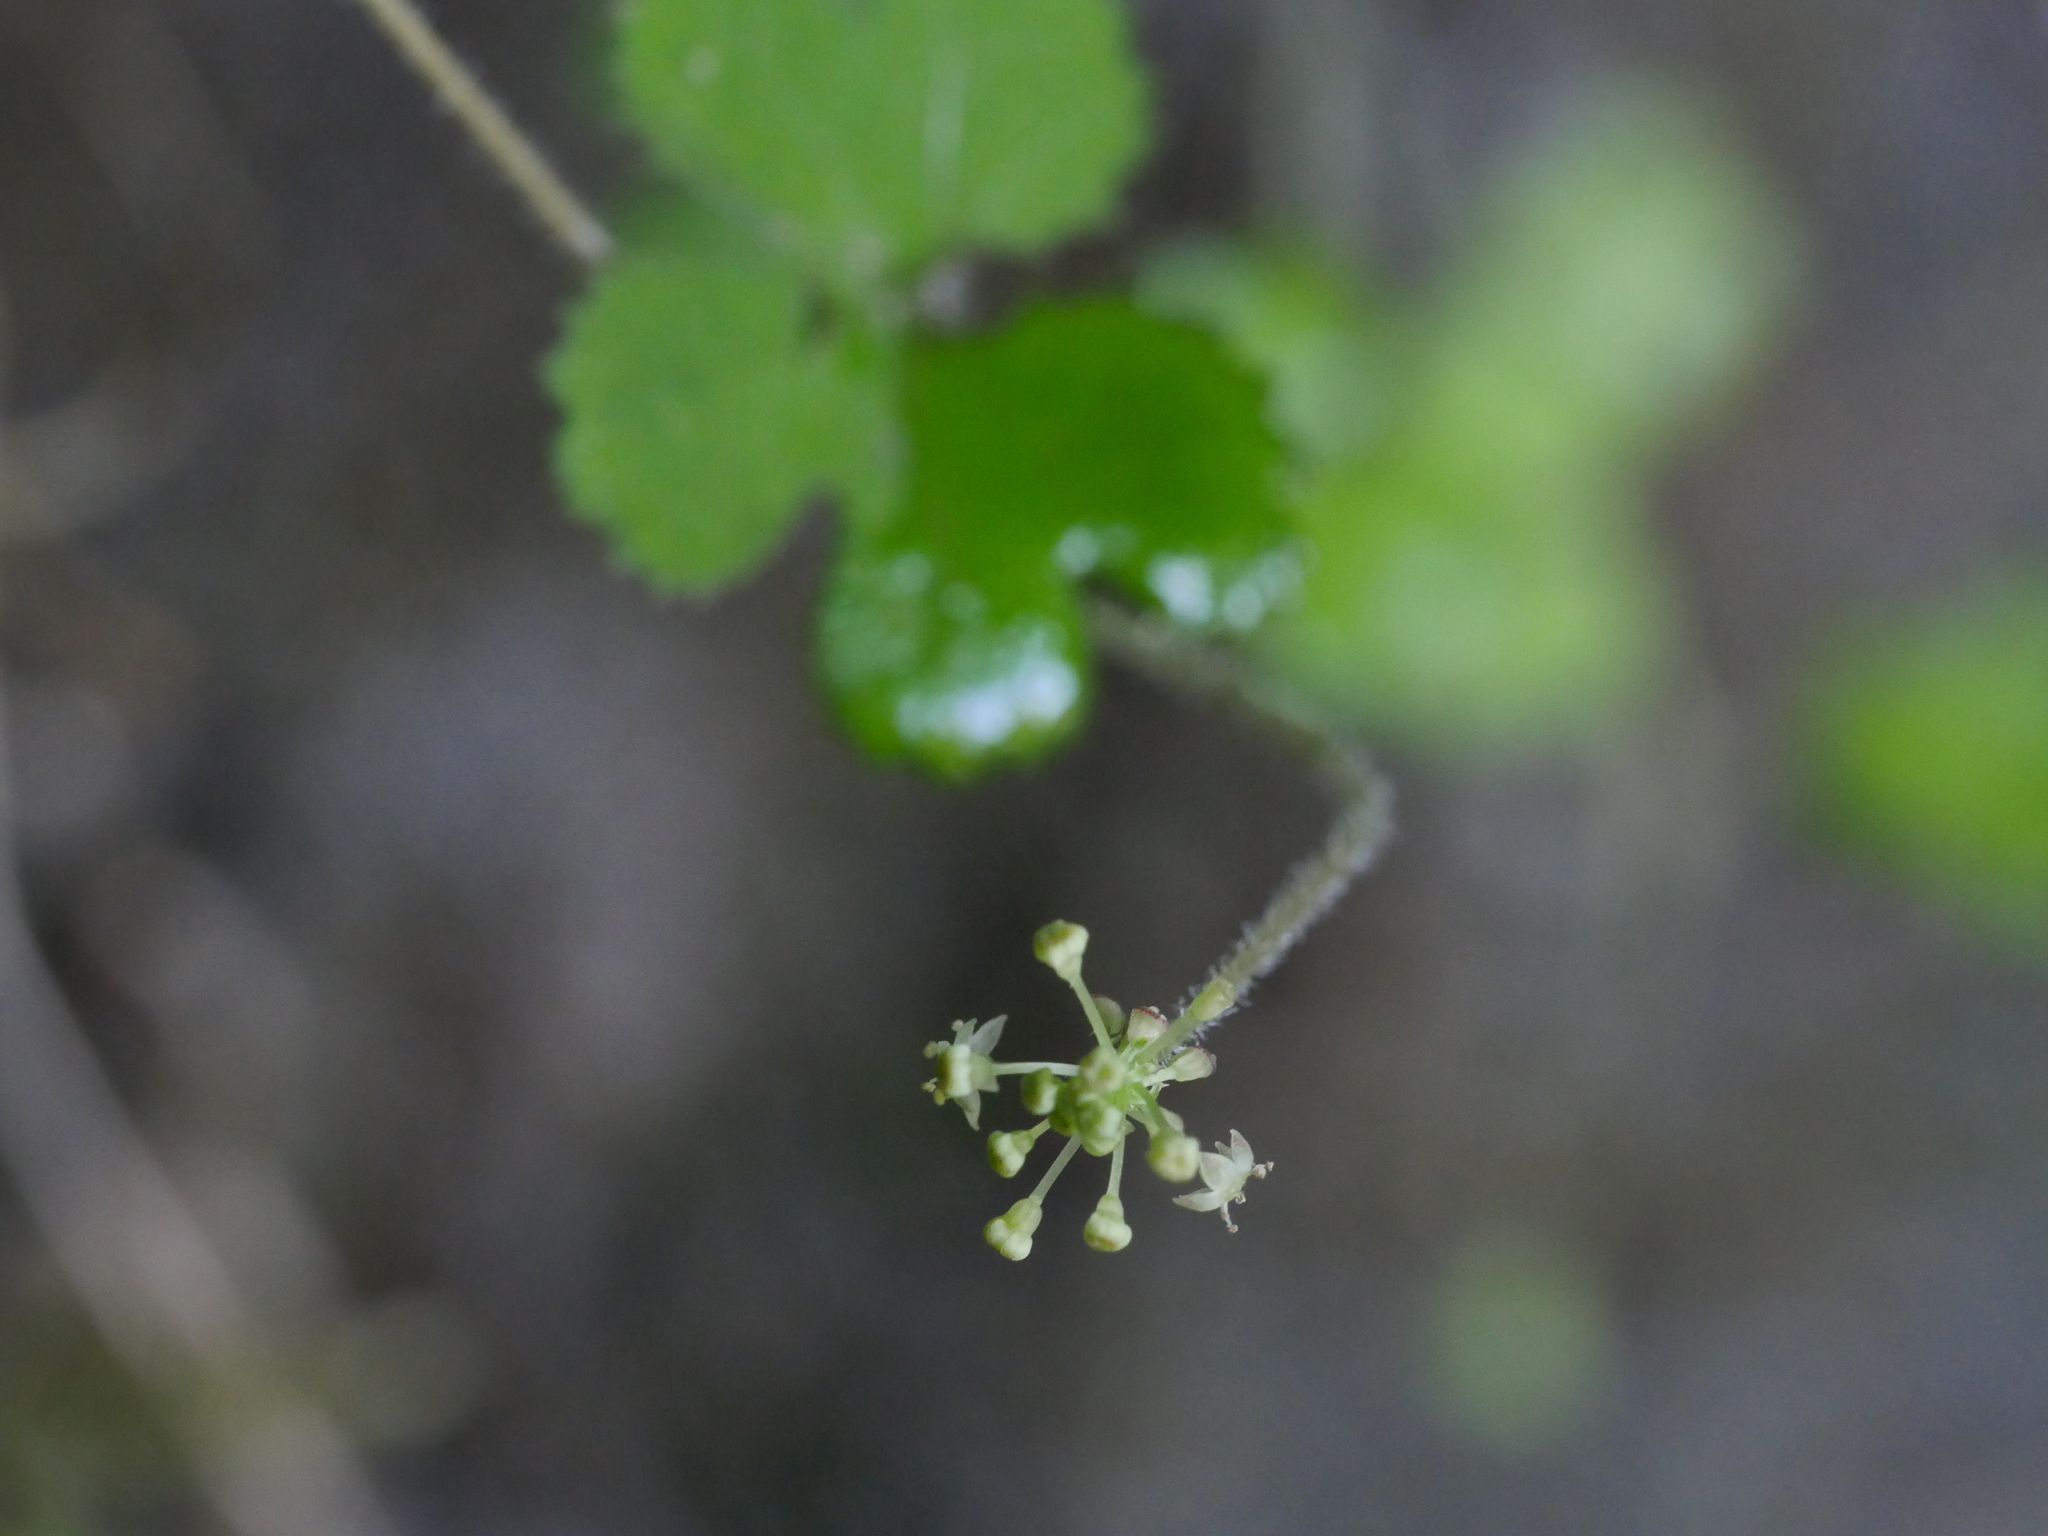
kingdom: Plantae
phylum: Tracheophyta
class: Magnoliopsida
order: Apiales
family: Araliaceae
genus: Hydrocotyle
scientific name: Hydrocotyle elongata
